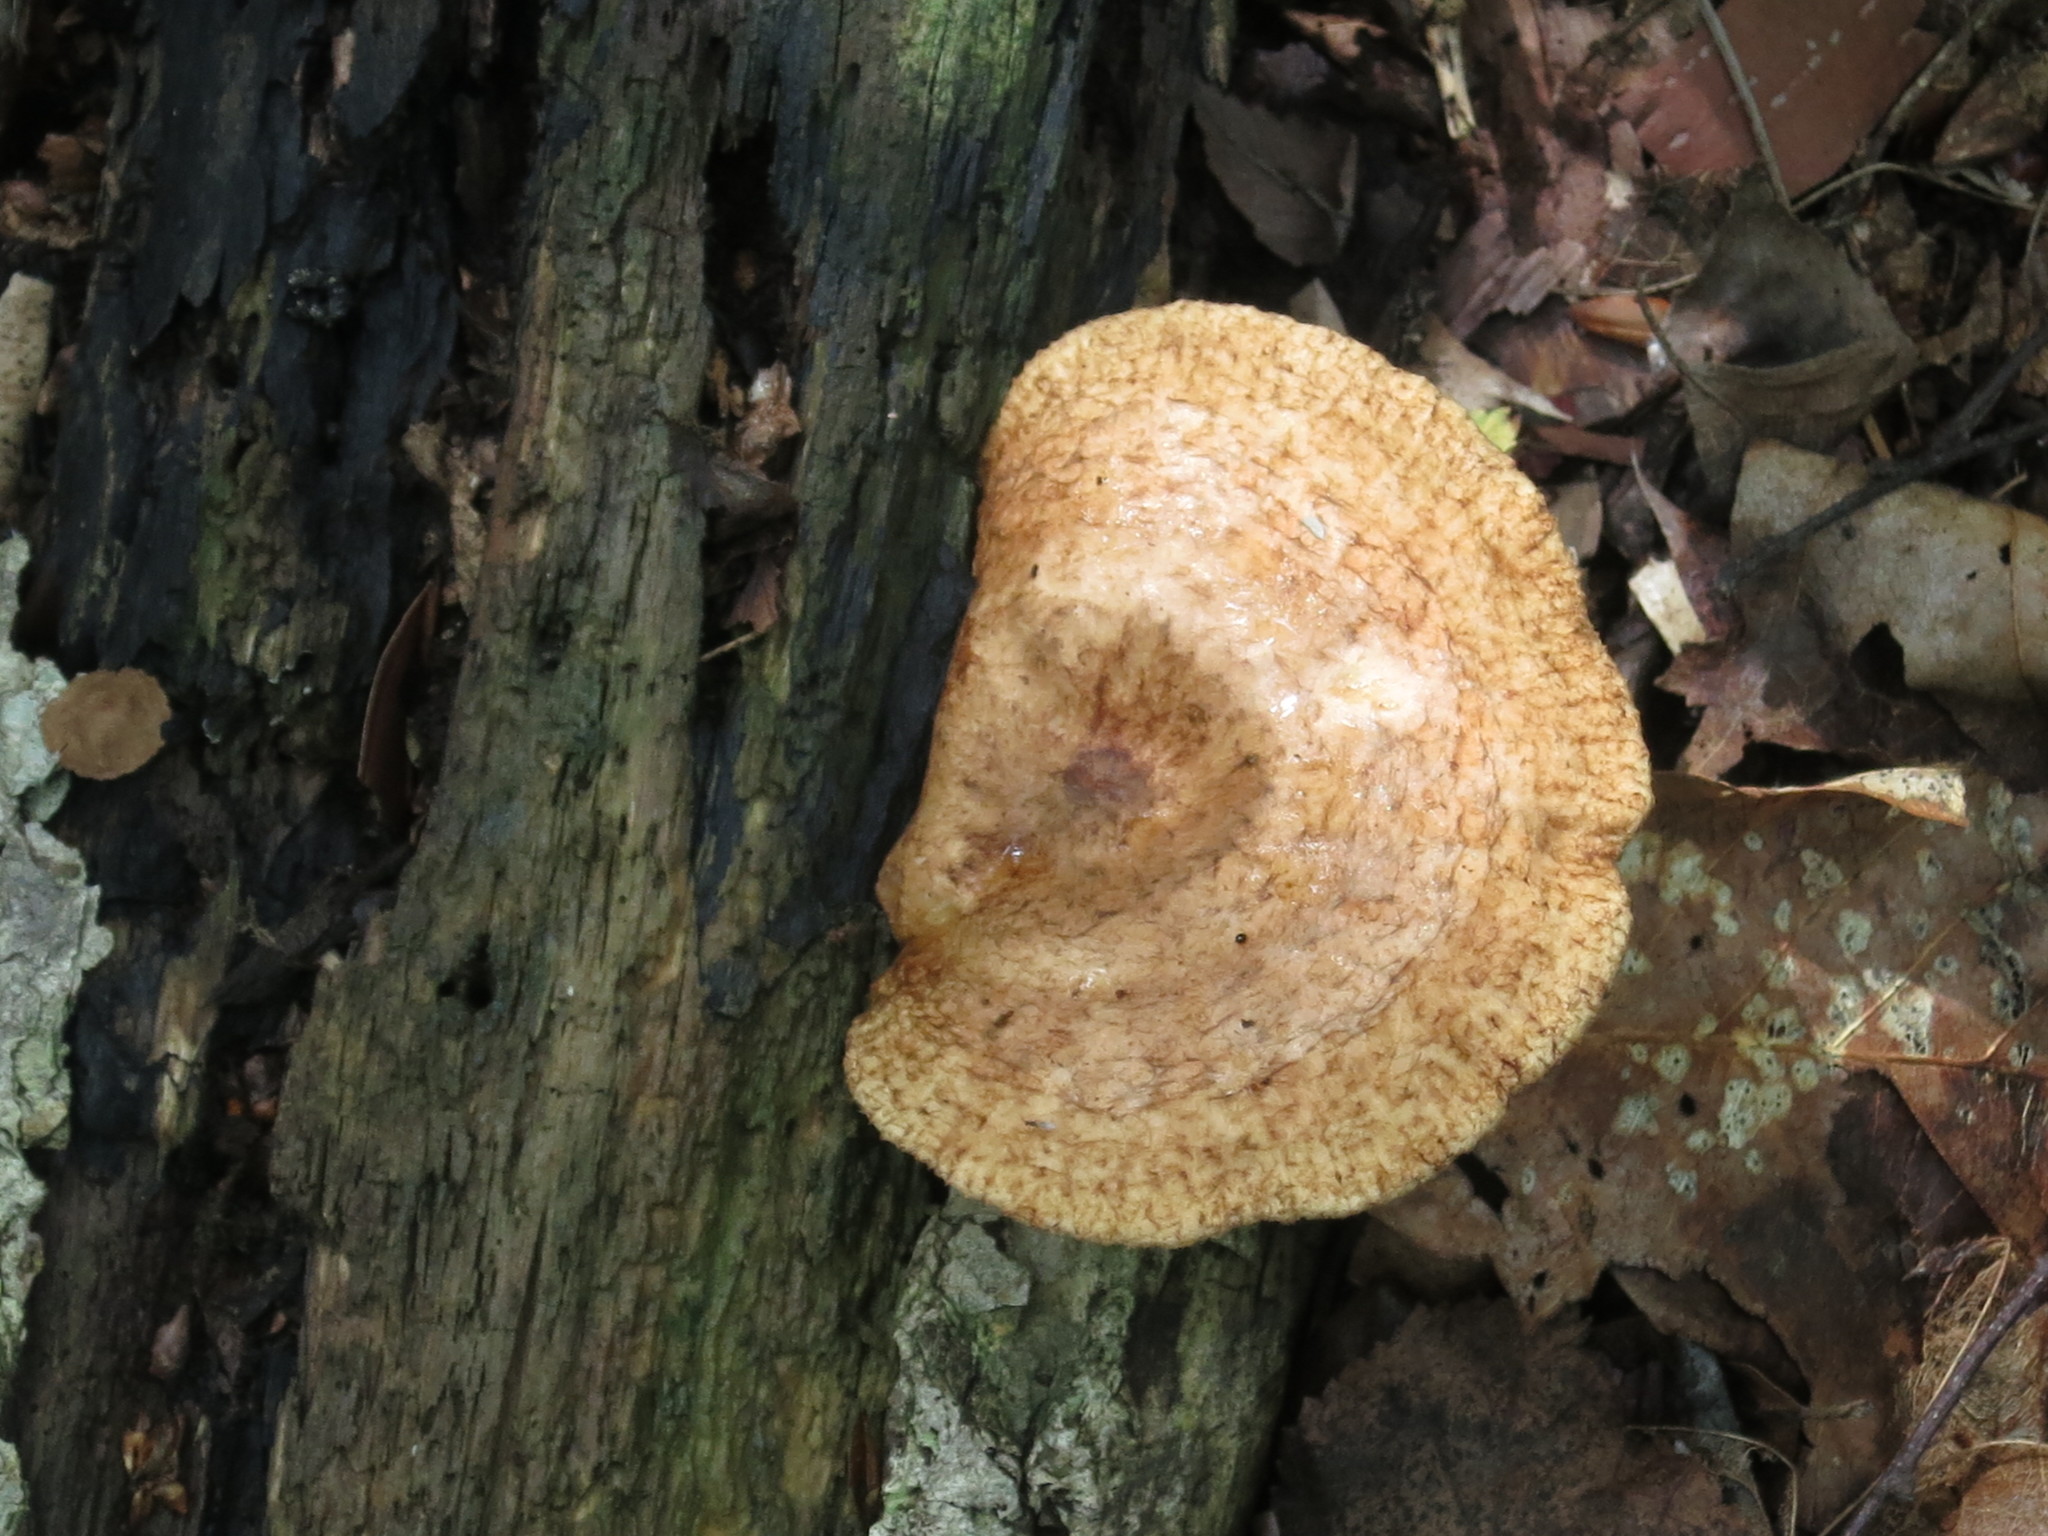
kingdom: Fungi
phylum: Basidiomycota
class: Agaricomycetes
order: Polyporales
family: Polyporaceae
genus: Cerioporus
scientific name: Cerioporus squamosus
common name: Dryad's saddle
